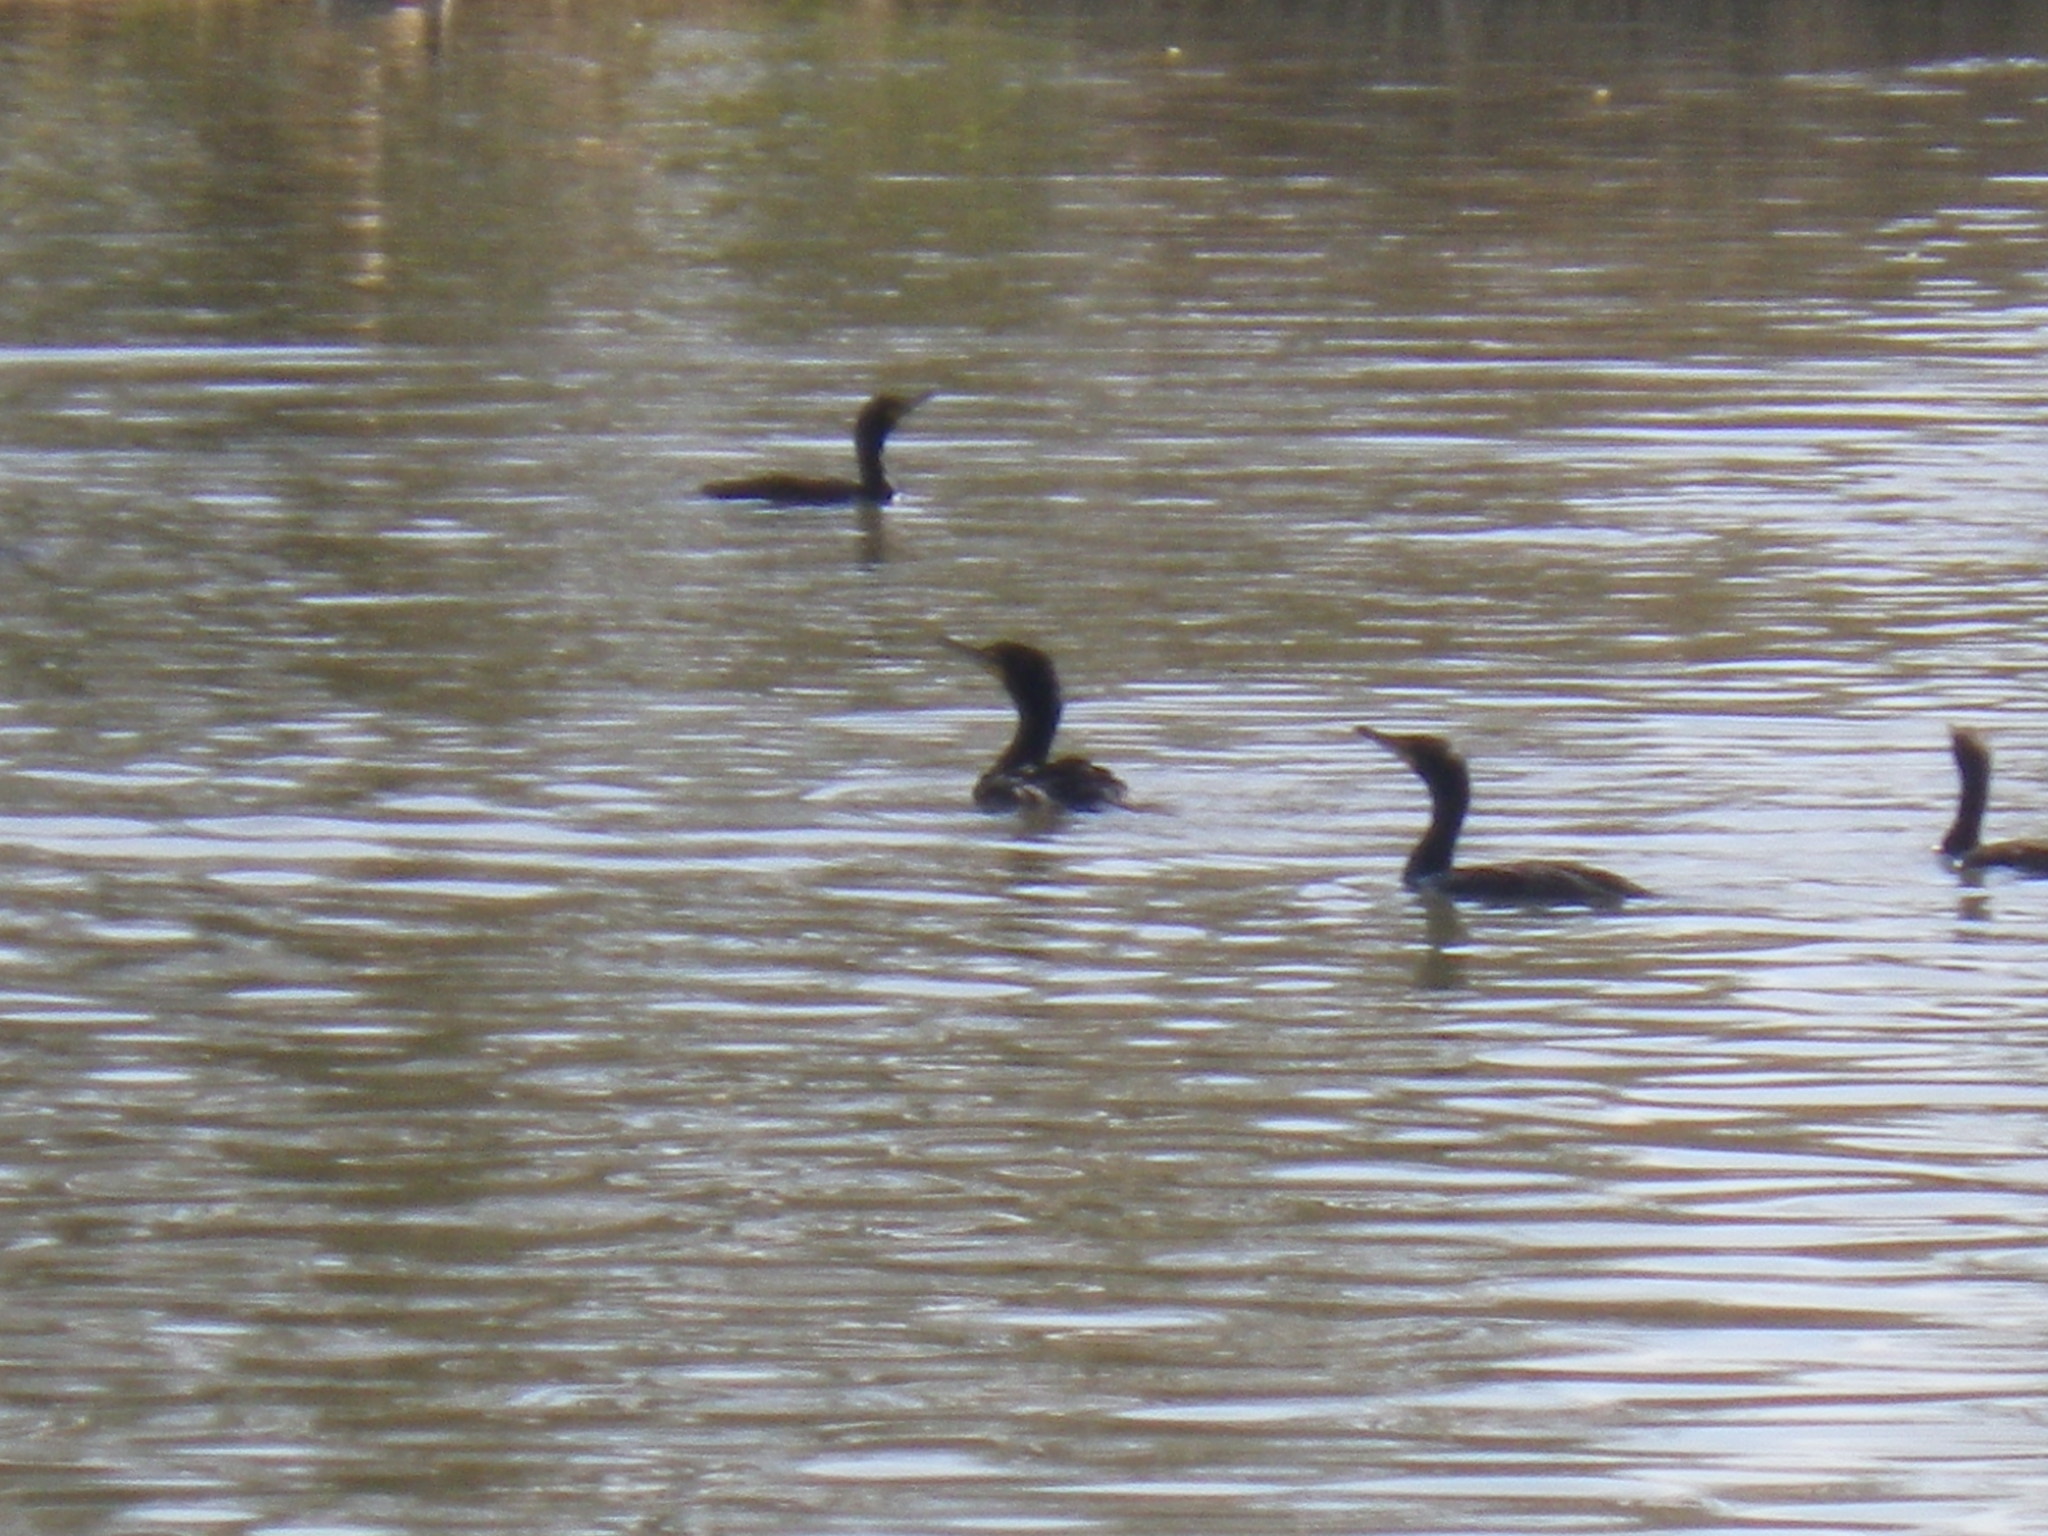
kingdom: Animalia
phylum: Chordata
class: Aves
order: Suliformes
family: Phalacrocoracidae
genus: Phalacrocorax
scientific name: Phalacrocorax auritus
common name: Double-crested cormorant
